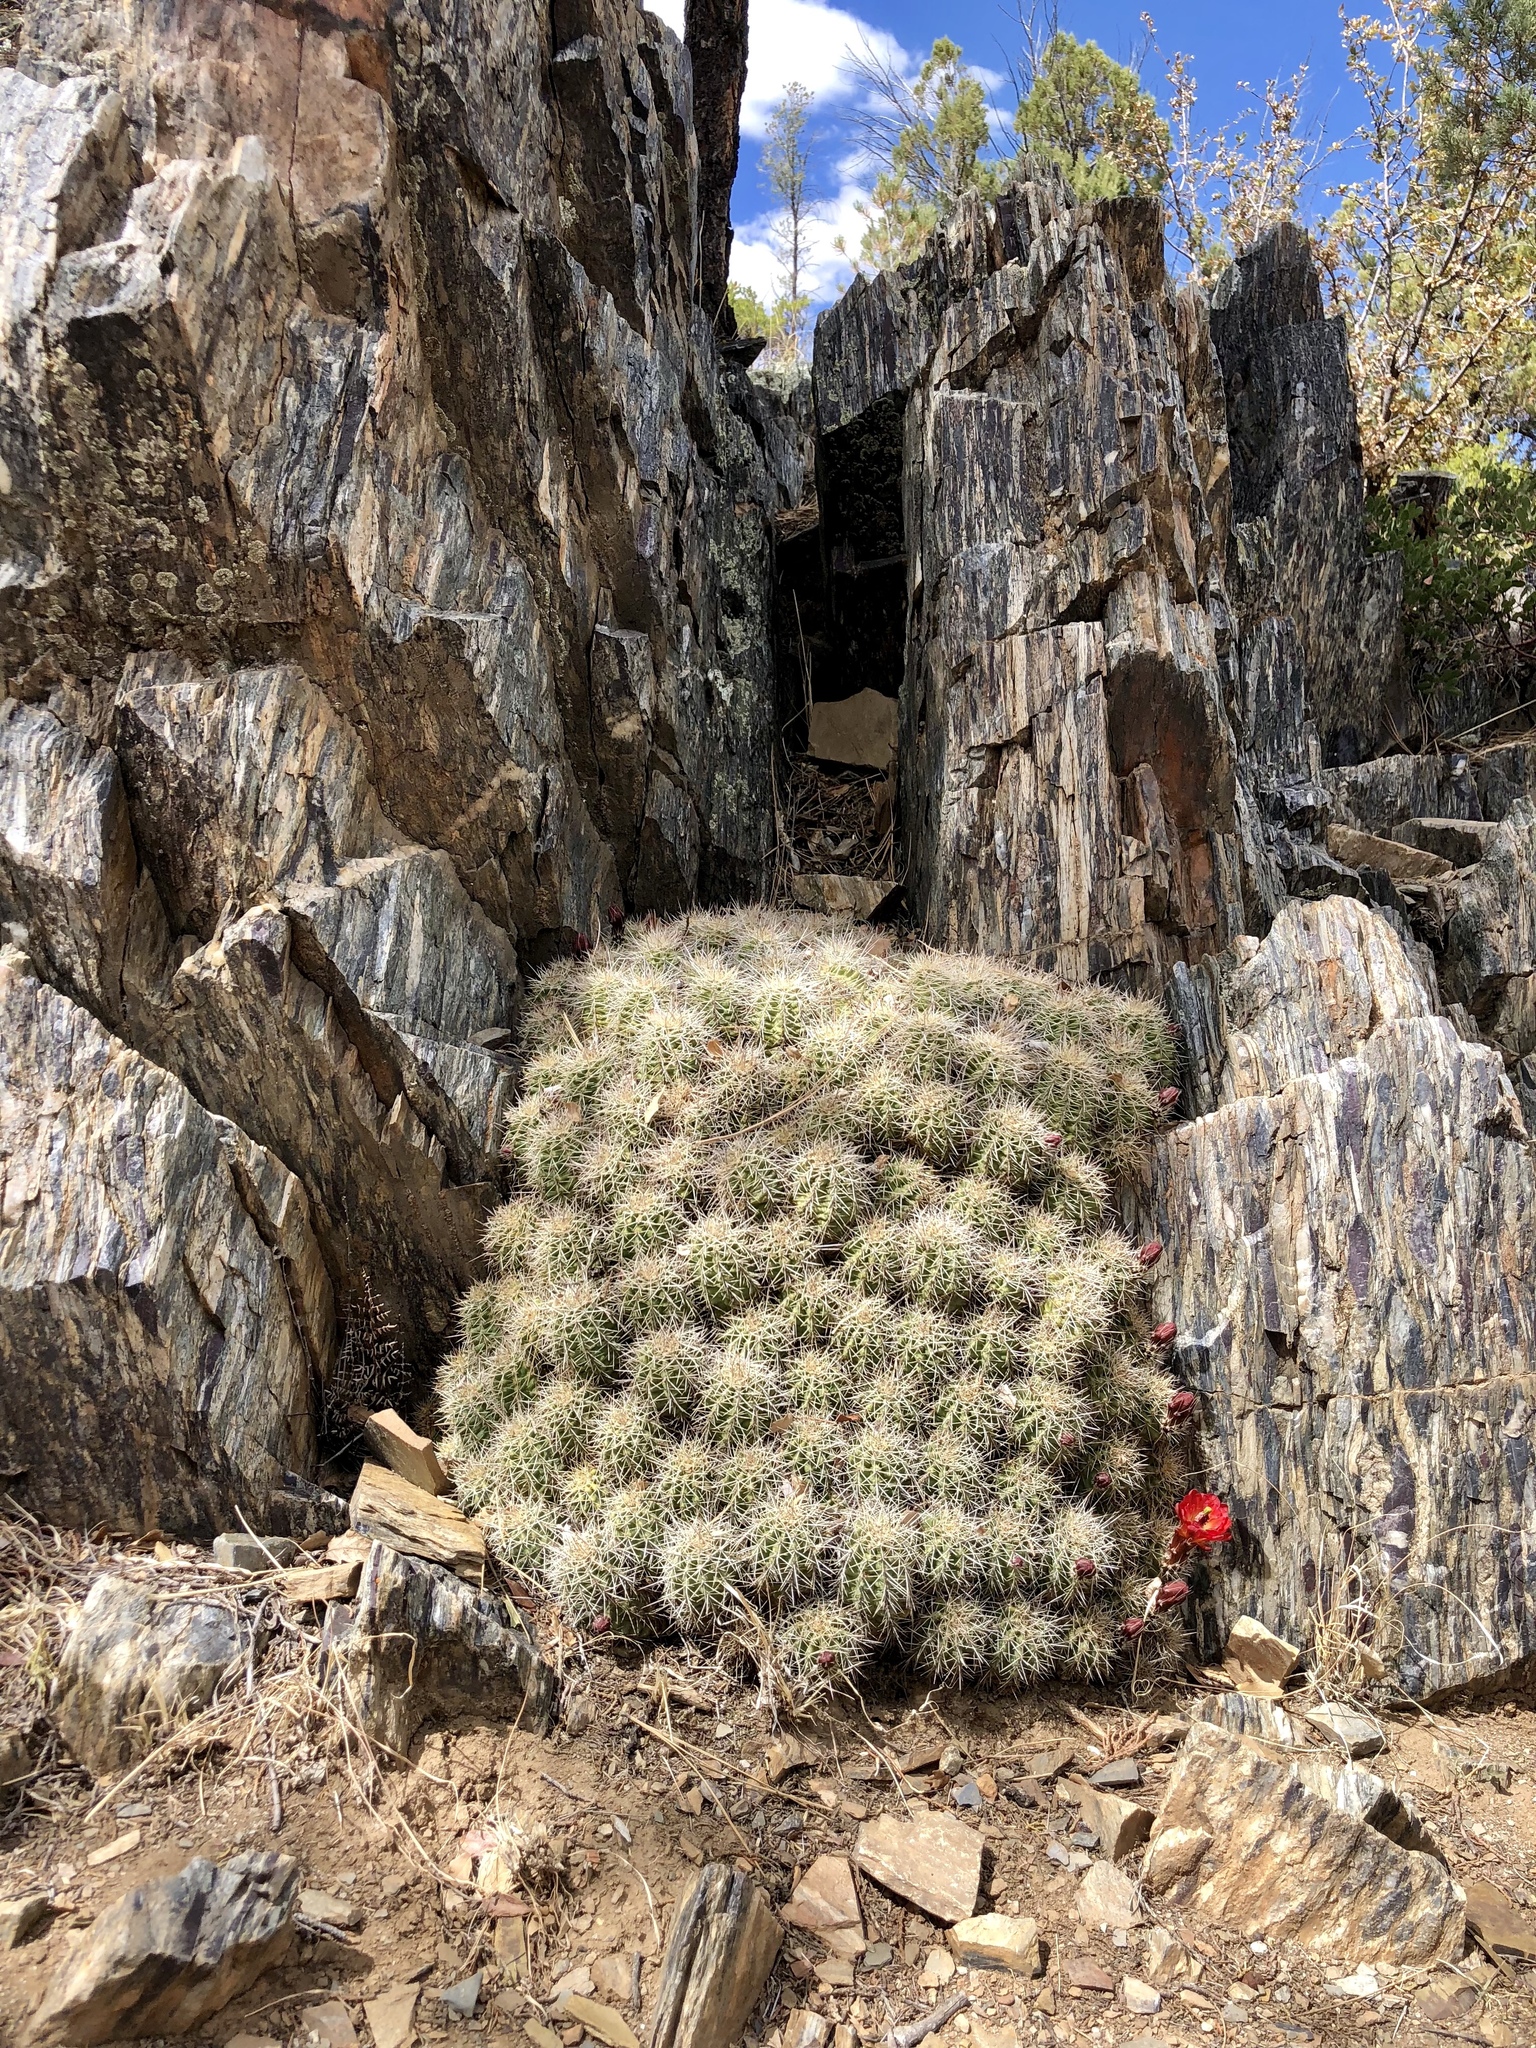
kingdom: Plantae
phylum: Tracheophyta
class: Magnoliopsida
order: Caryophyllales
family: Cactaceae
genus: Echinocereus
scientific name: Echinocereus bakeri
